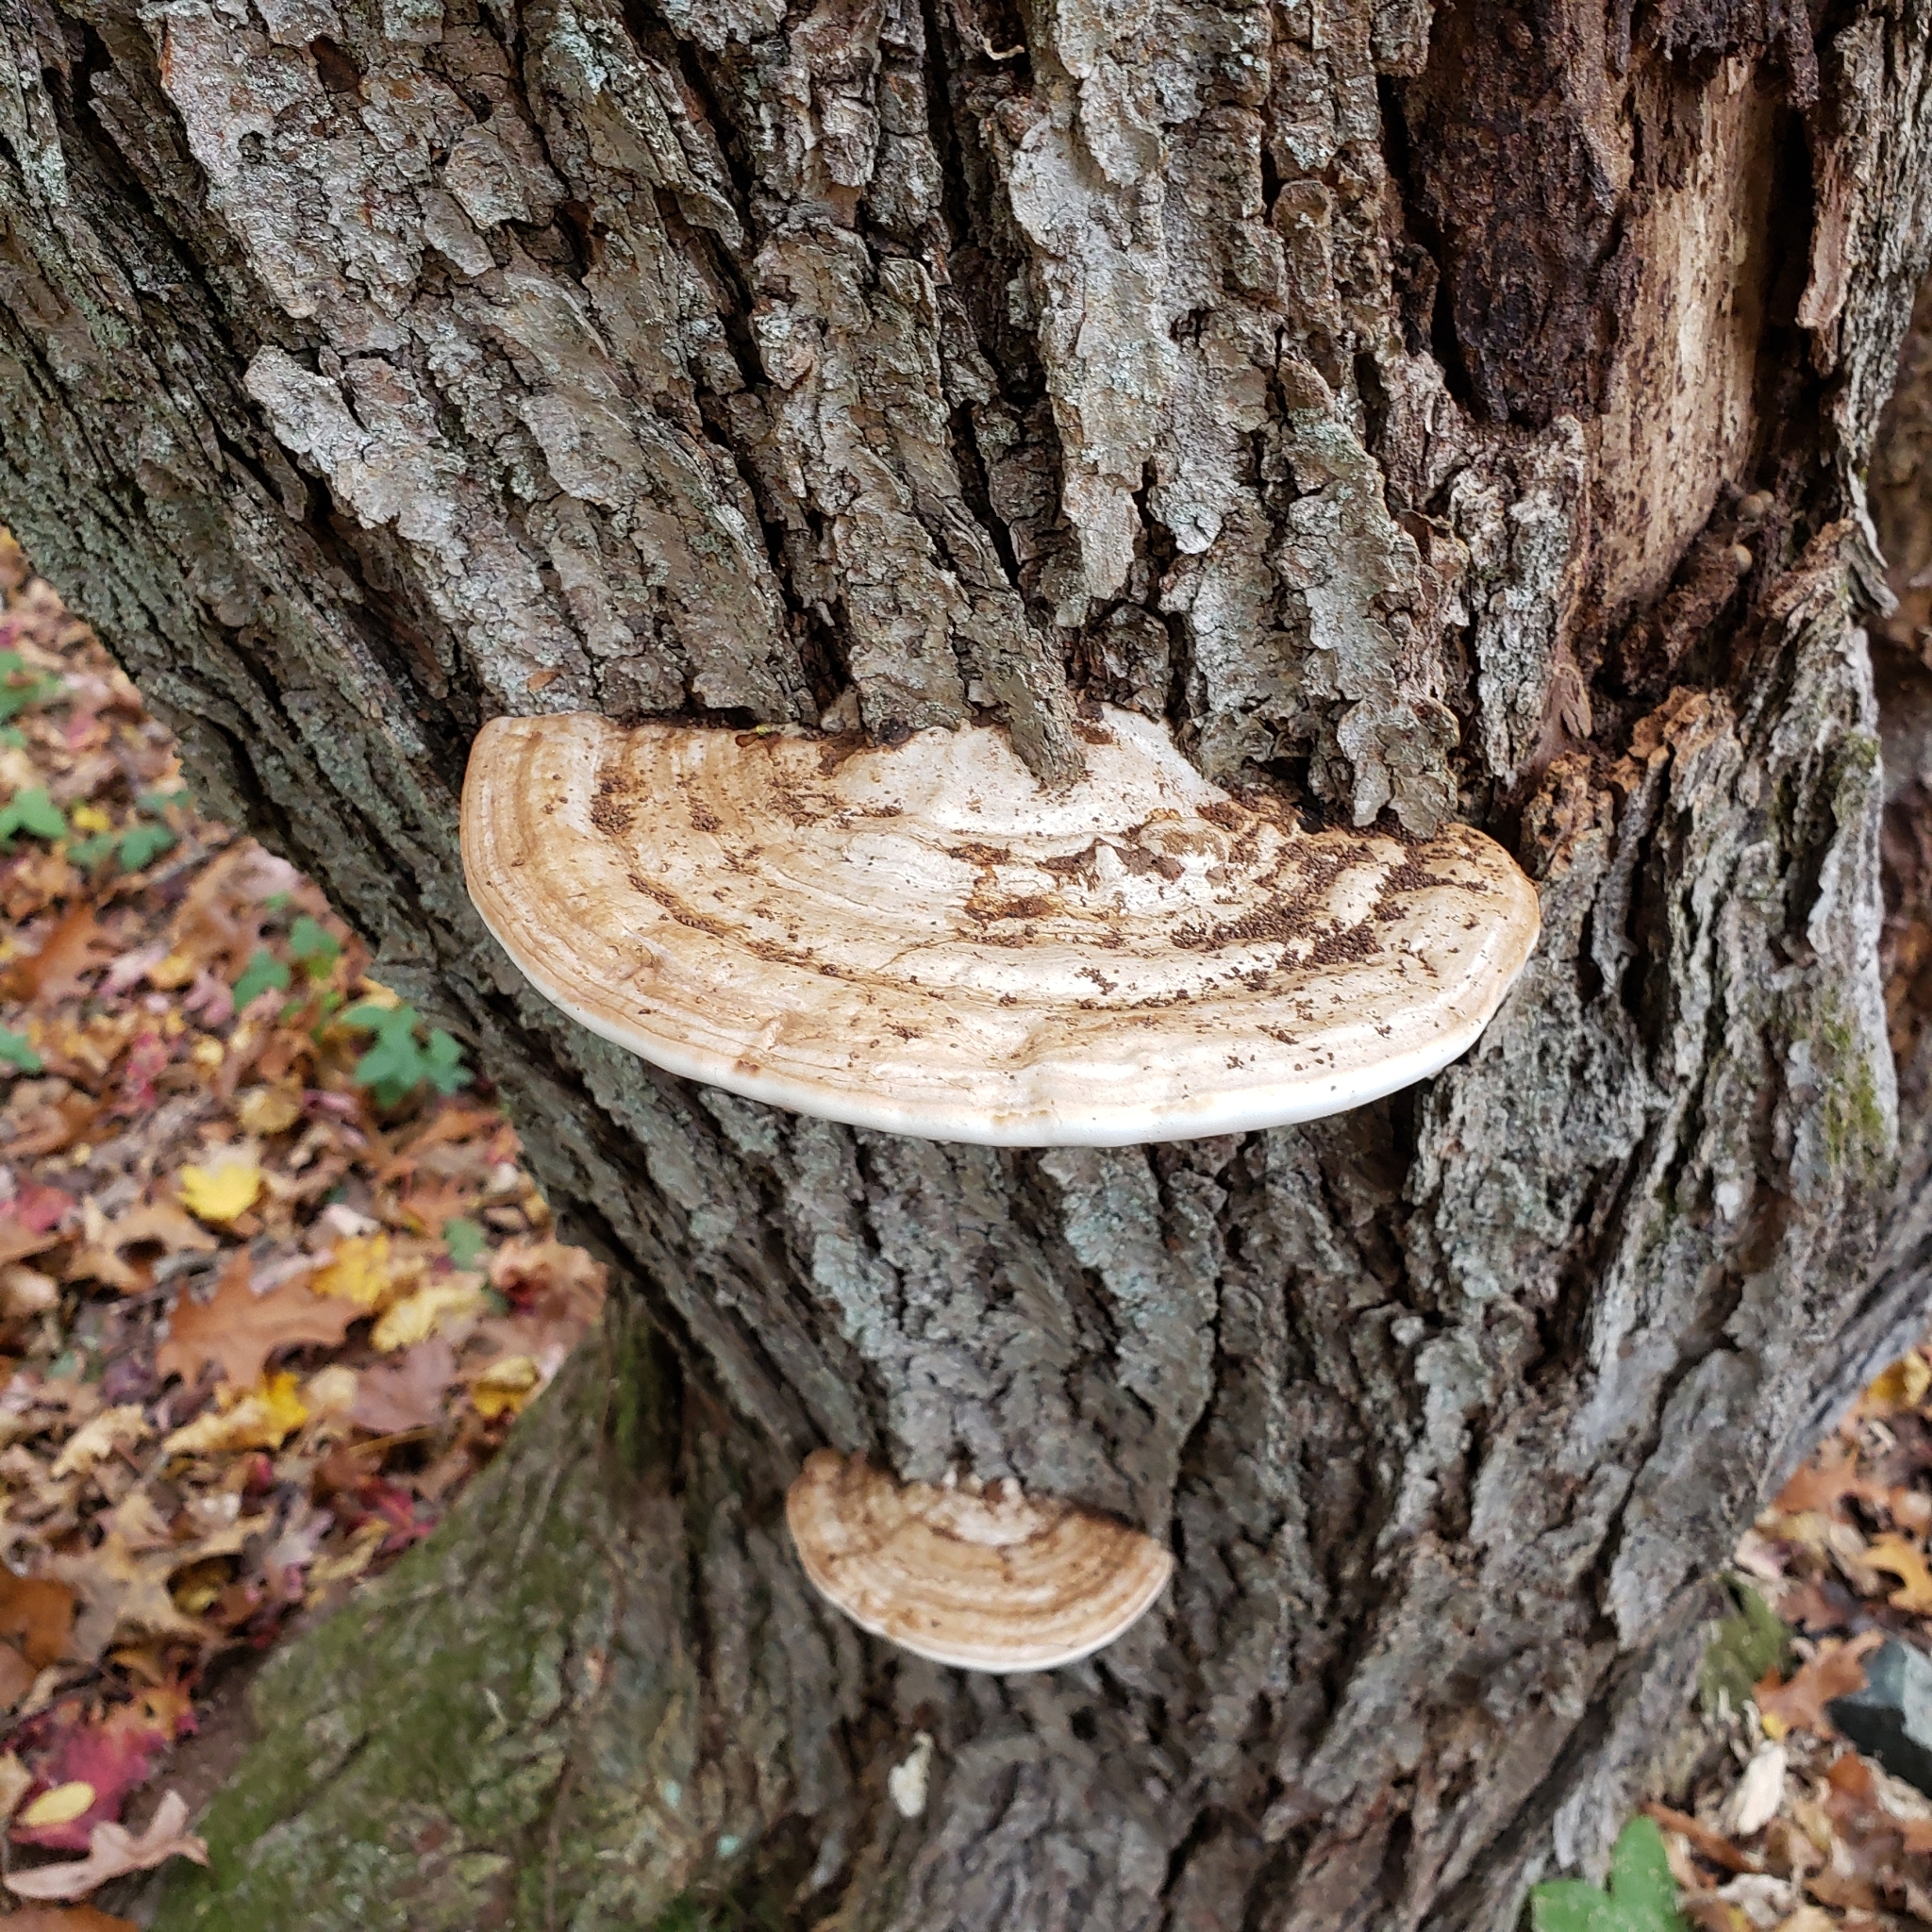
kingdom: Fungi
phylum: Basidiomycota
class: Agaricomycetes
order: Polyporales
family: Polyporaceae
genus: Ganoderma
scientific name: Ganoderma applanatum
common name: Artist's bracket
